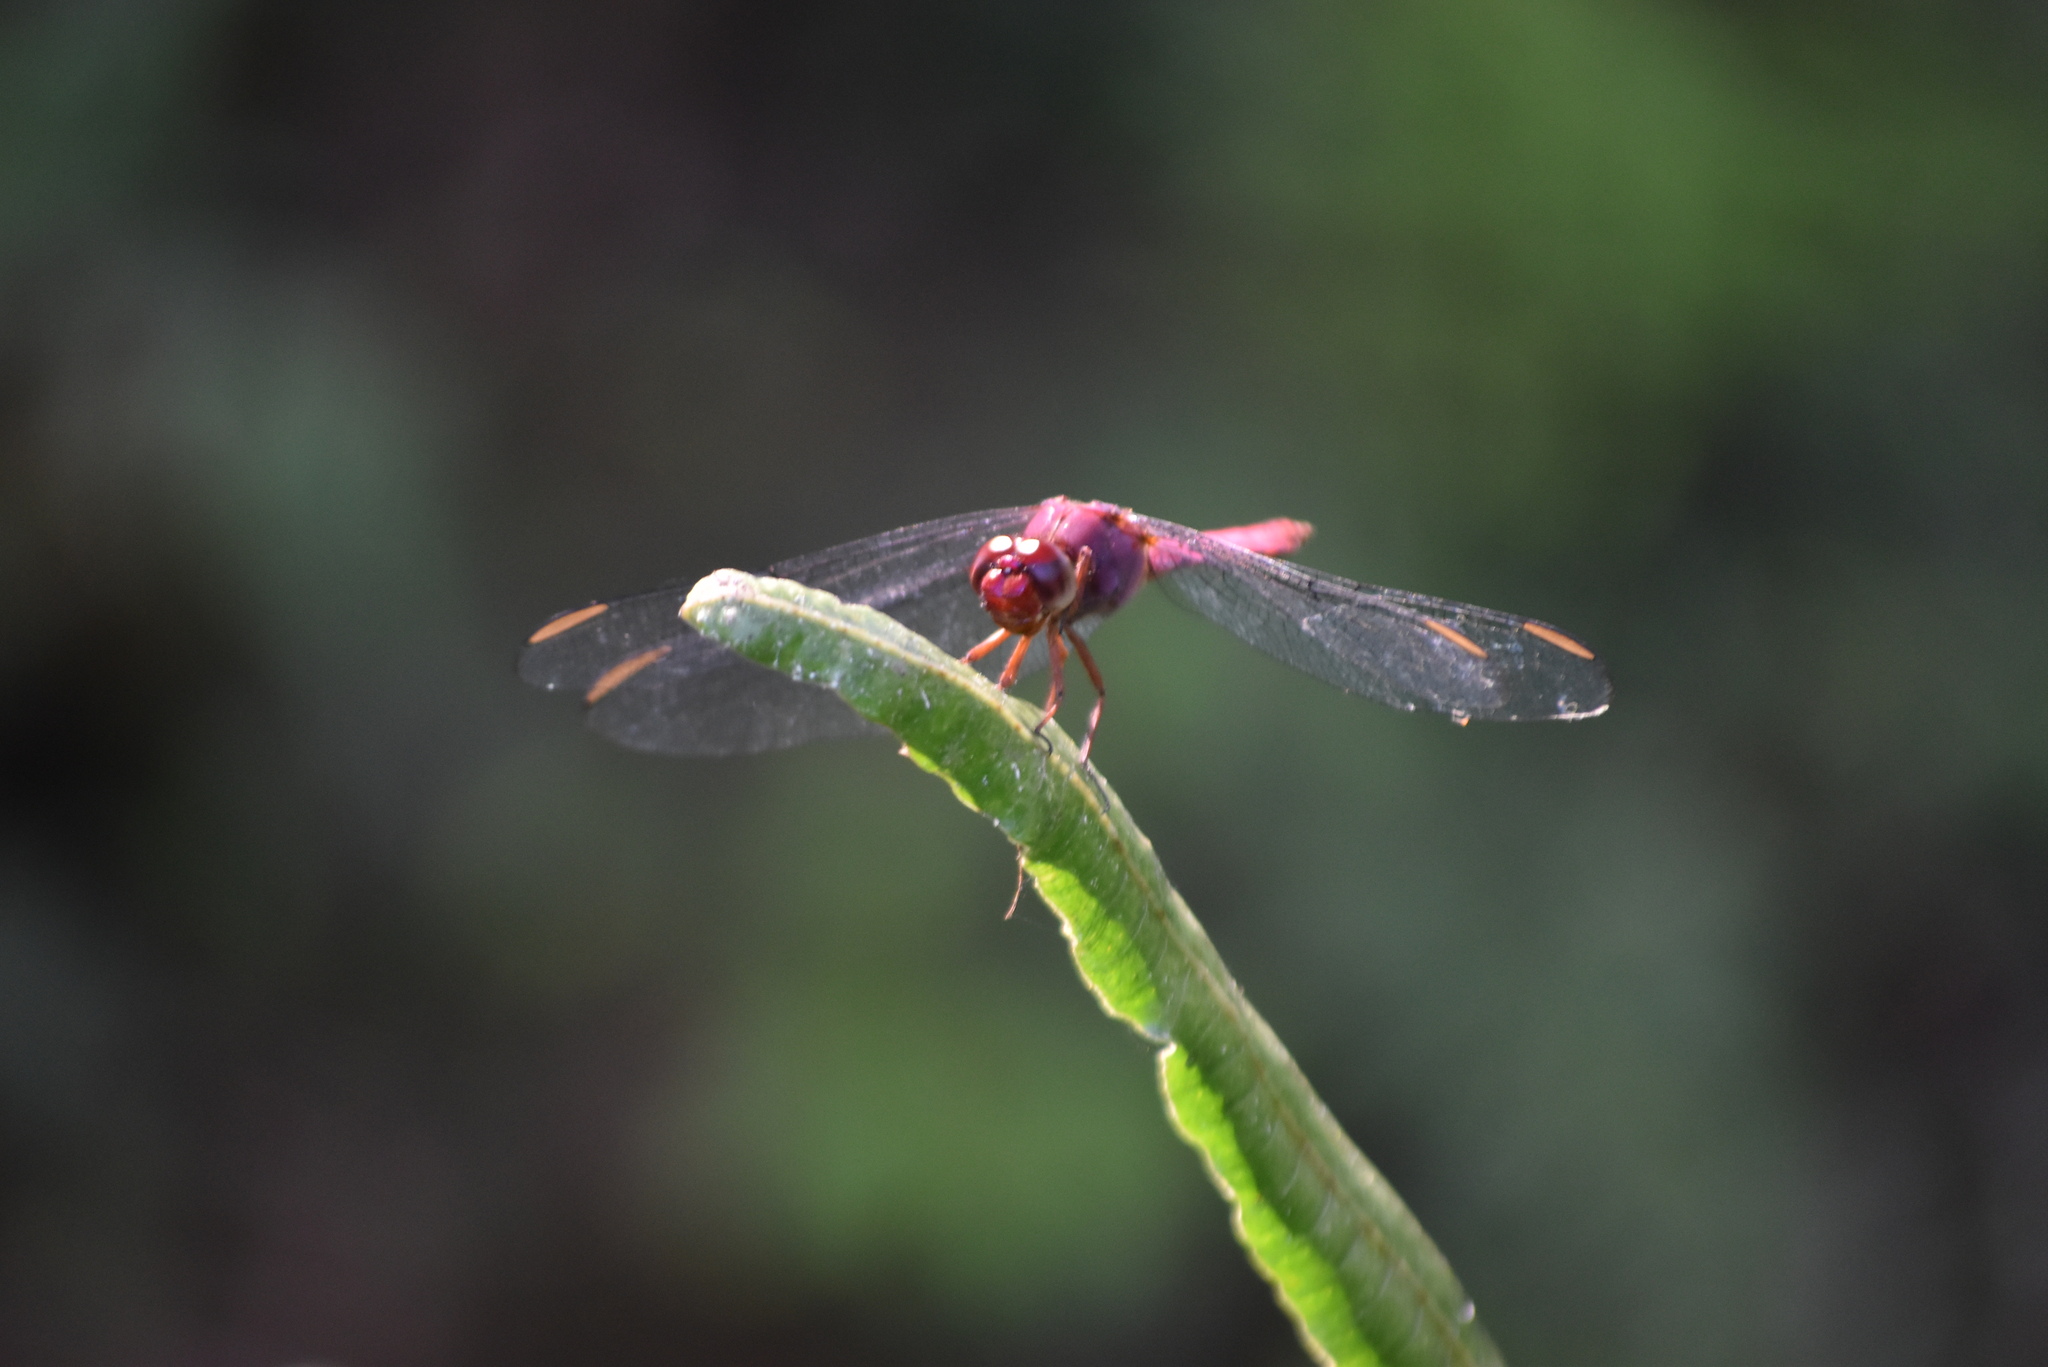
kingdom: Animalia
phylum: Arthropoda
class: Insecta
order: Odonata
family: Libellulidae
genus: Orthemis
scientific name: Orthemis discolor
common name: Carmine skimmer
